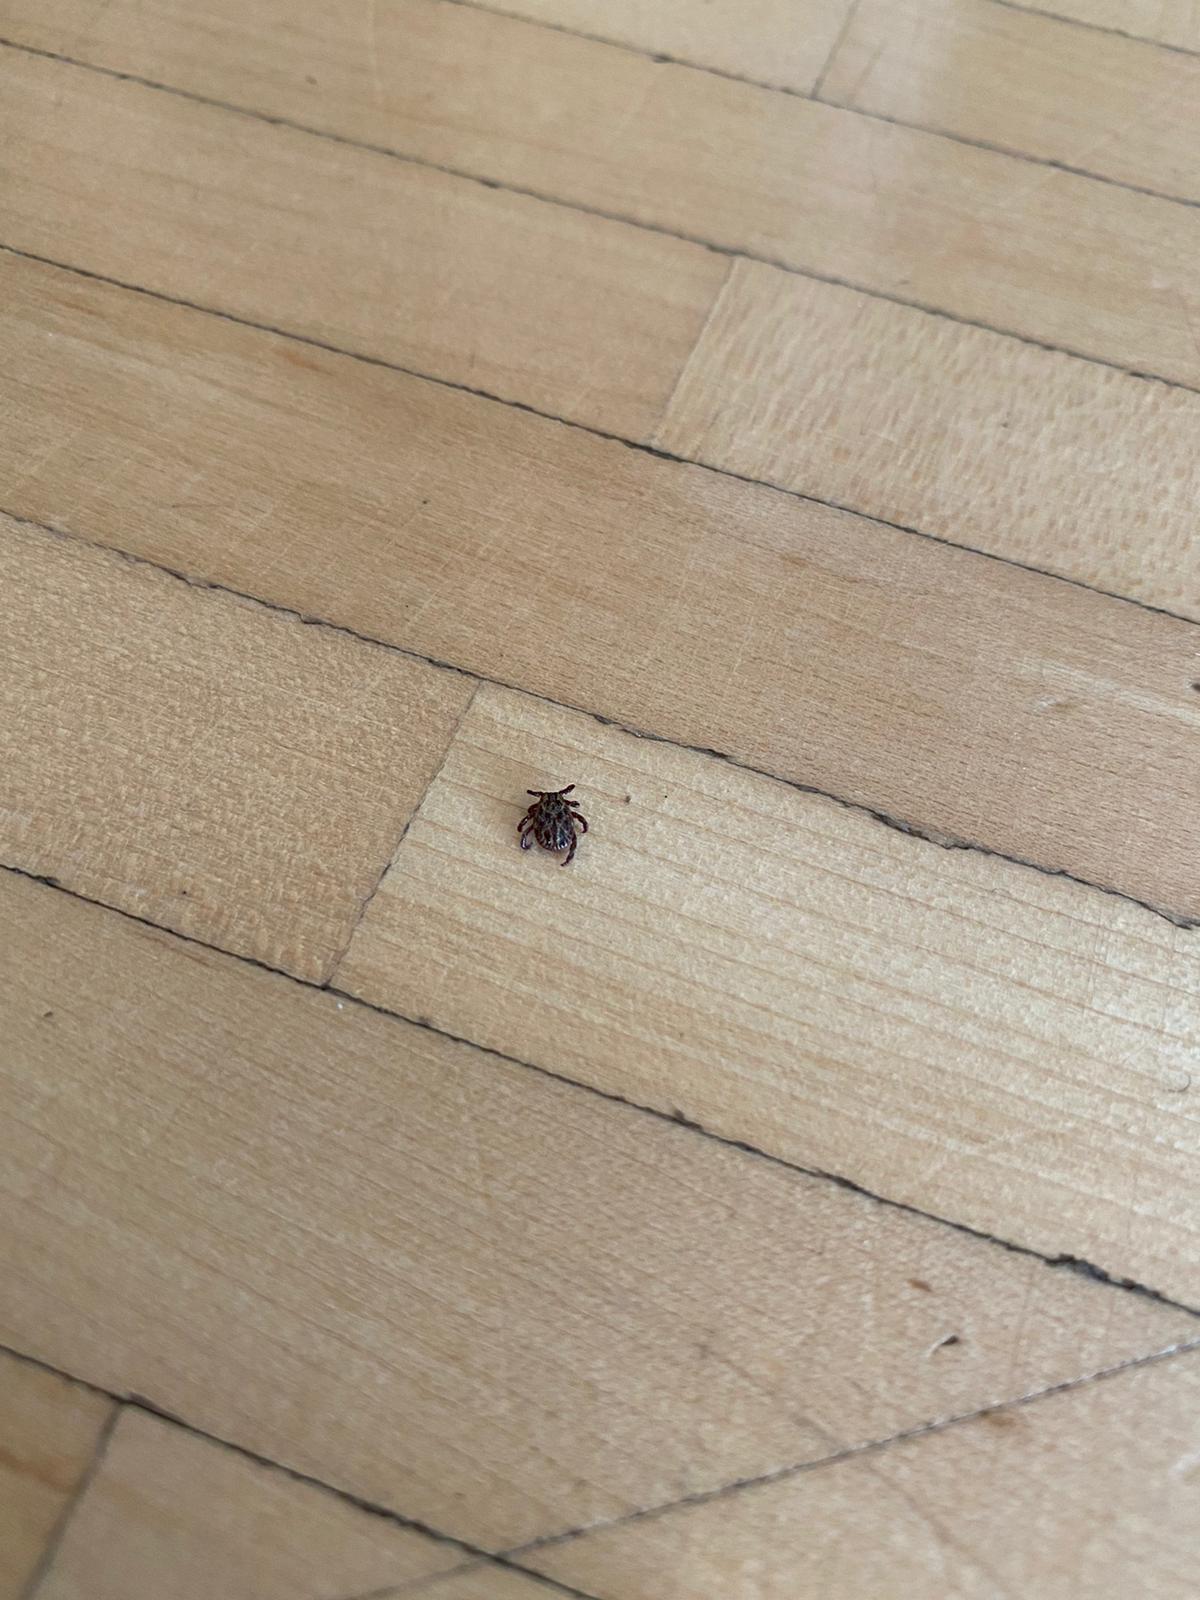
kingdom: Animalia
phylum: Arthropoda
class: Arachnida
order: Ixodida
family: Ixodidae
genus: Dermacentor
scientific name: Dermacentor
